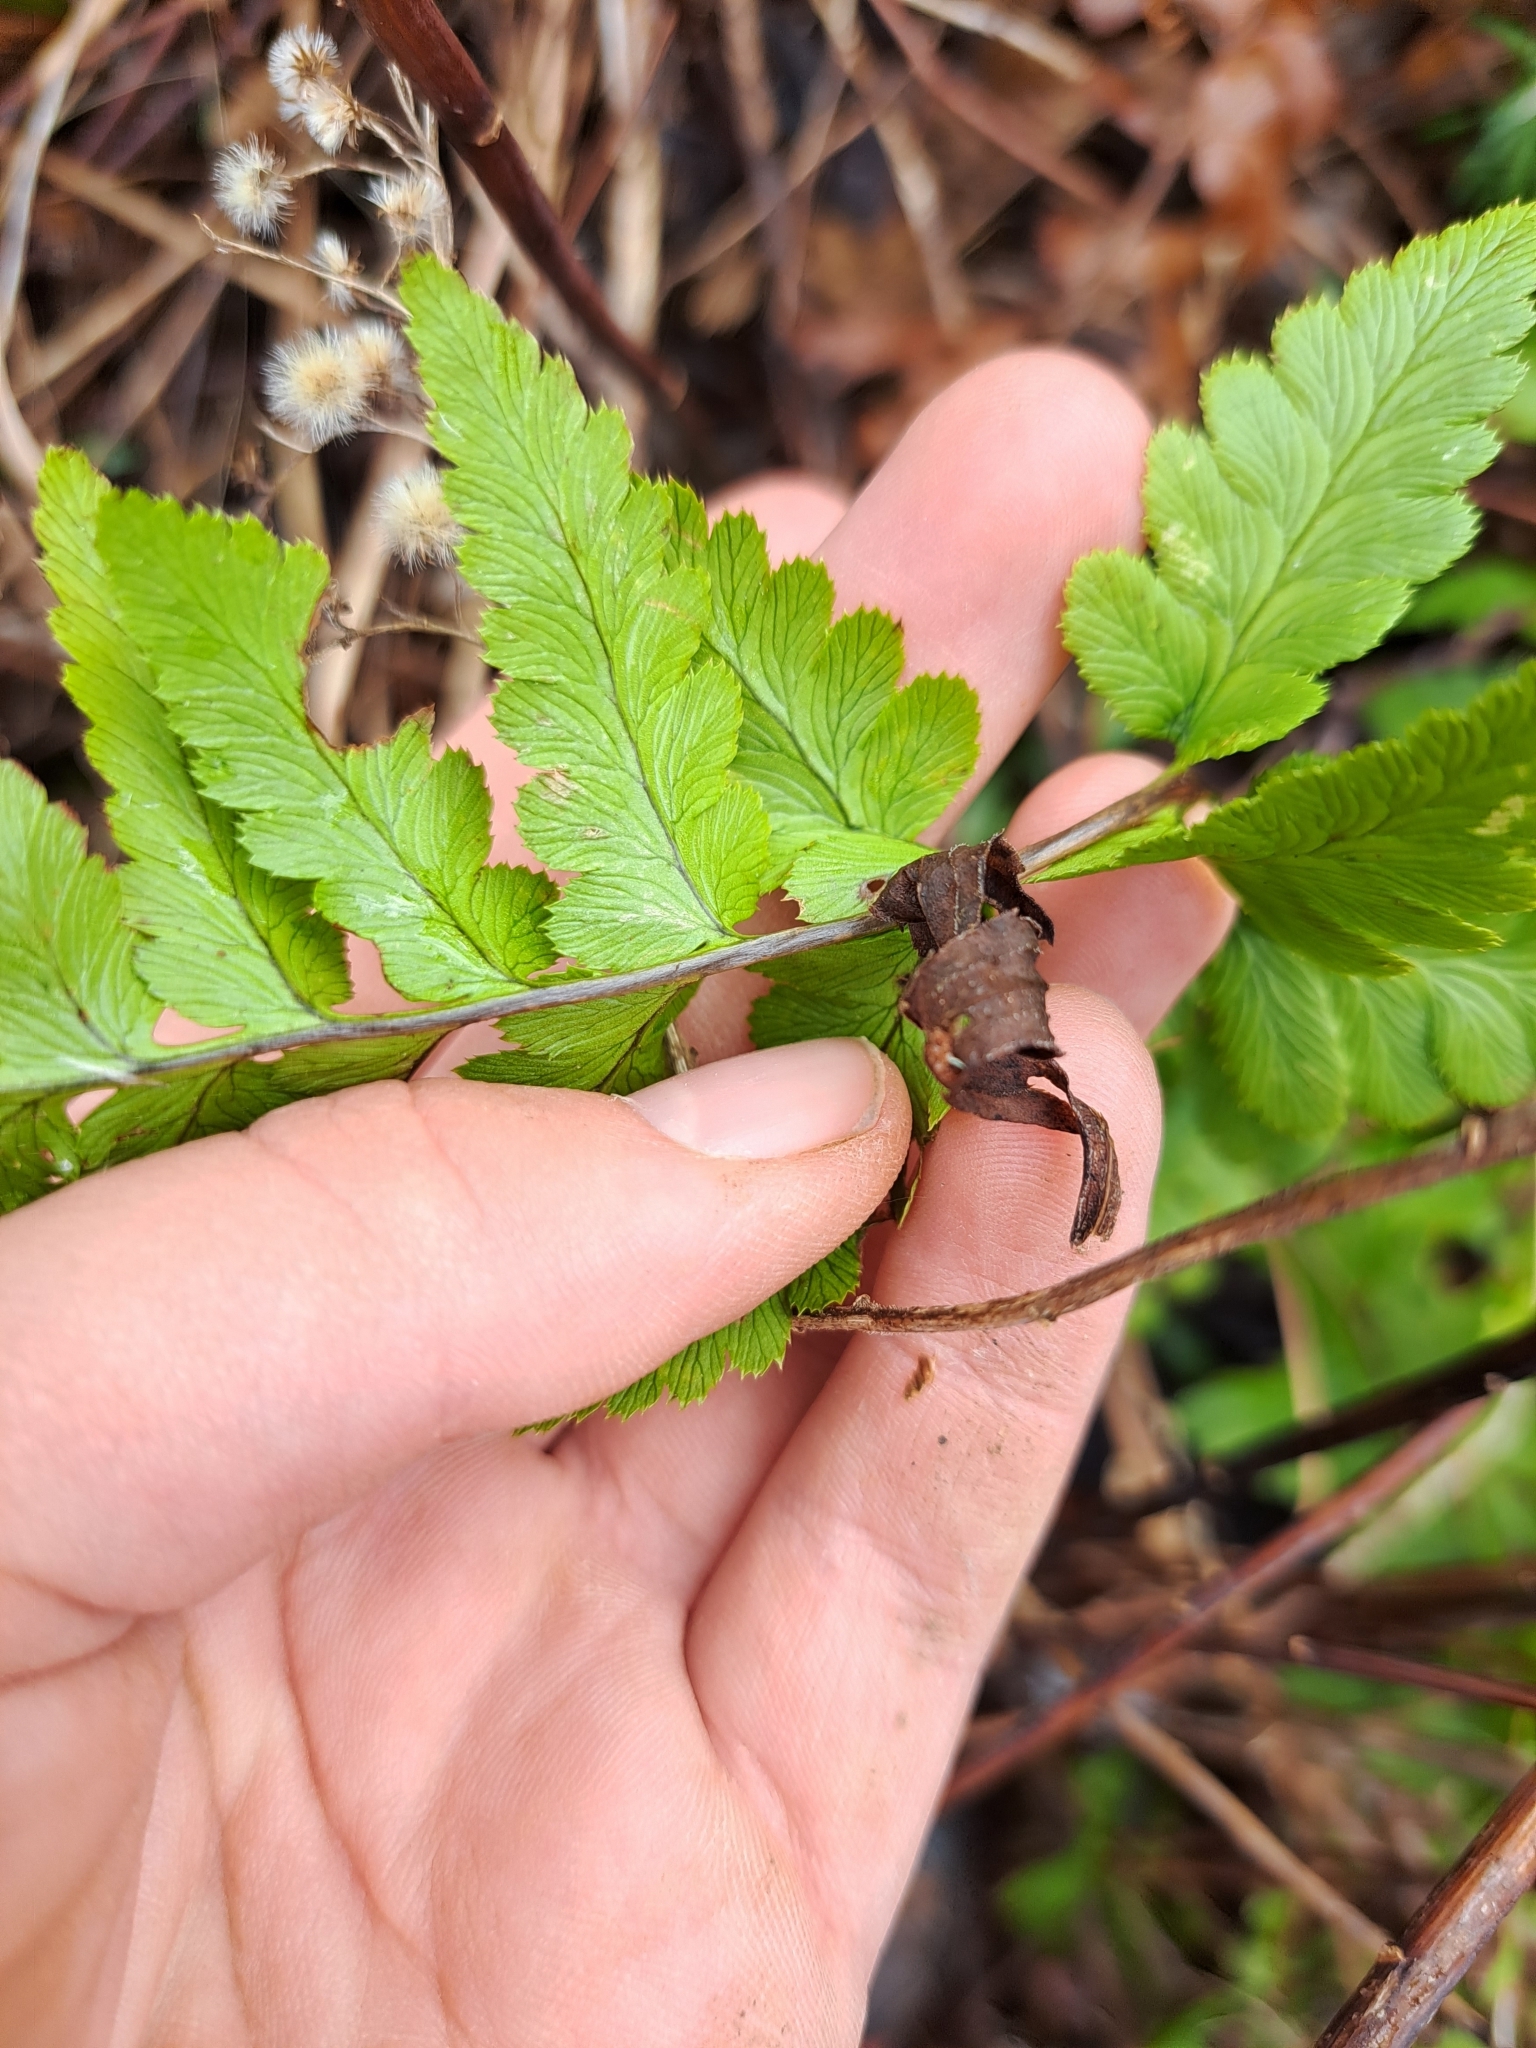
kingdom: Plantae
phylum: Tracheophyta
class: Polypodiopsida
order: Polypodiales
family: Dryopteridaceae
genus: Dryopteris
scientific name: Dryopteris cristata
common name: Crested wood fern
